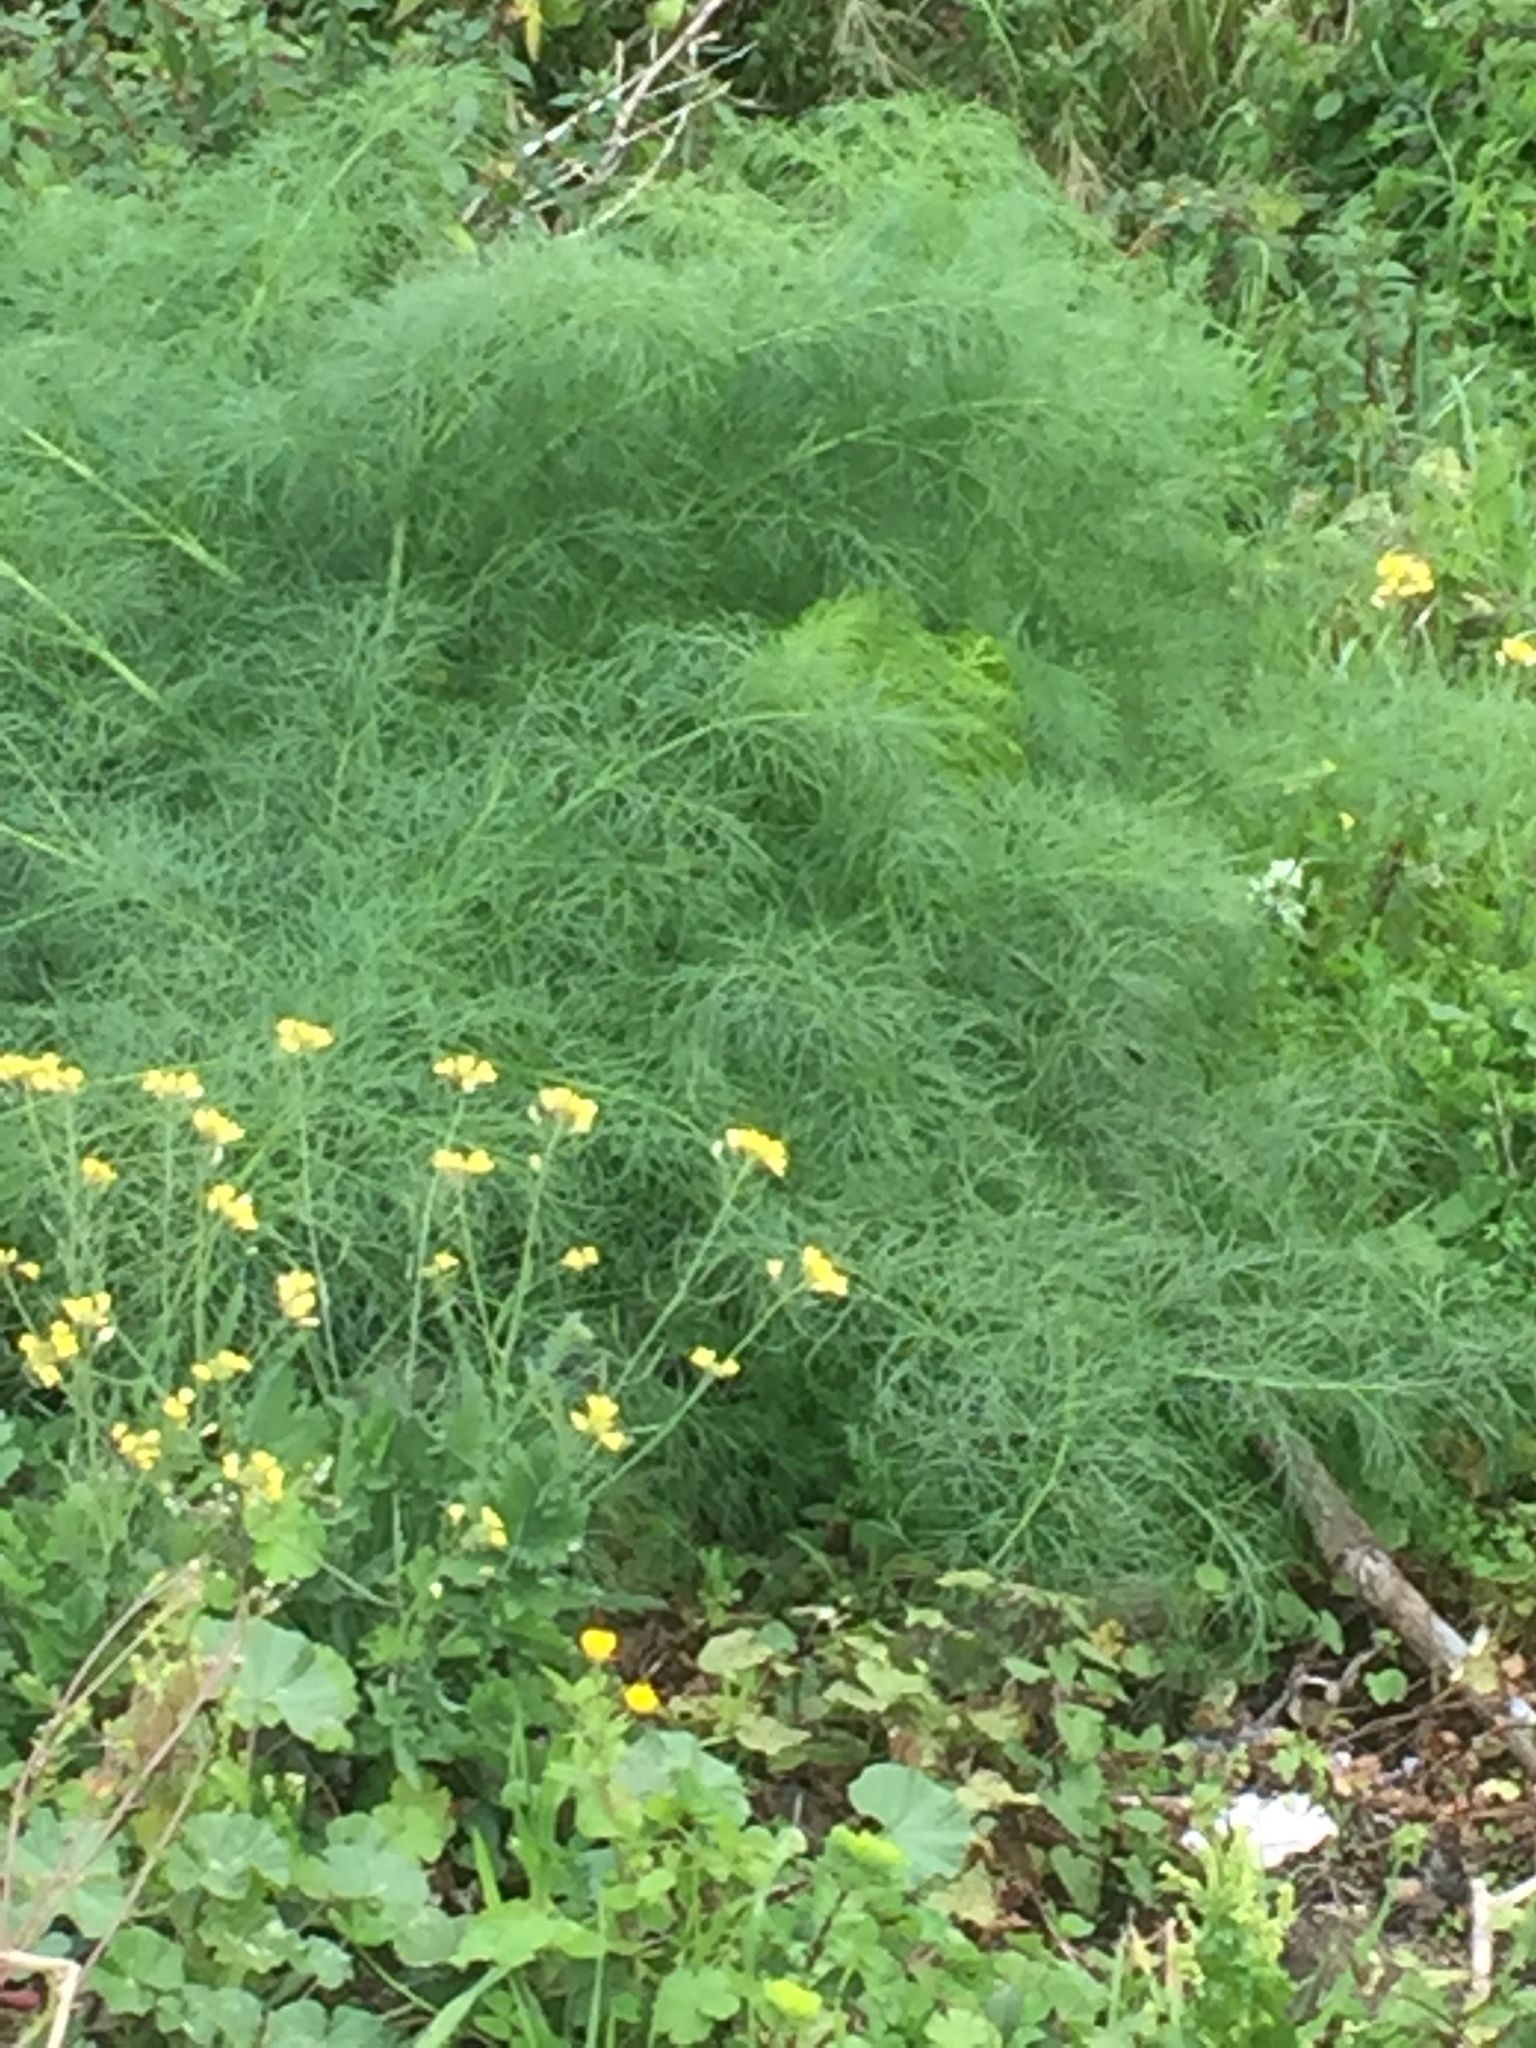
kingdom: Plantae
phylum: Tracheophyta
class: Magnoliopsida
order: Apiales
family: Apiaceae
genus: Foeniculum
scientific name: Foeniculum vulgare
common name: Fennel
